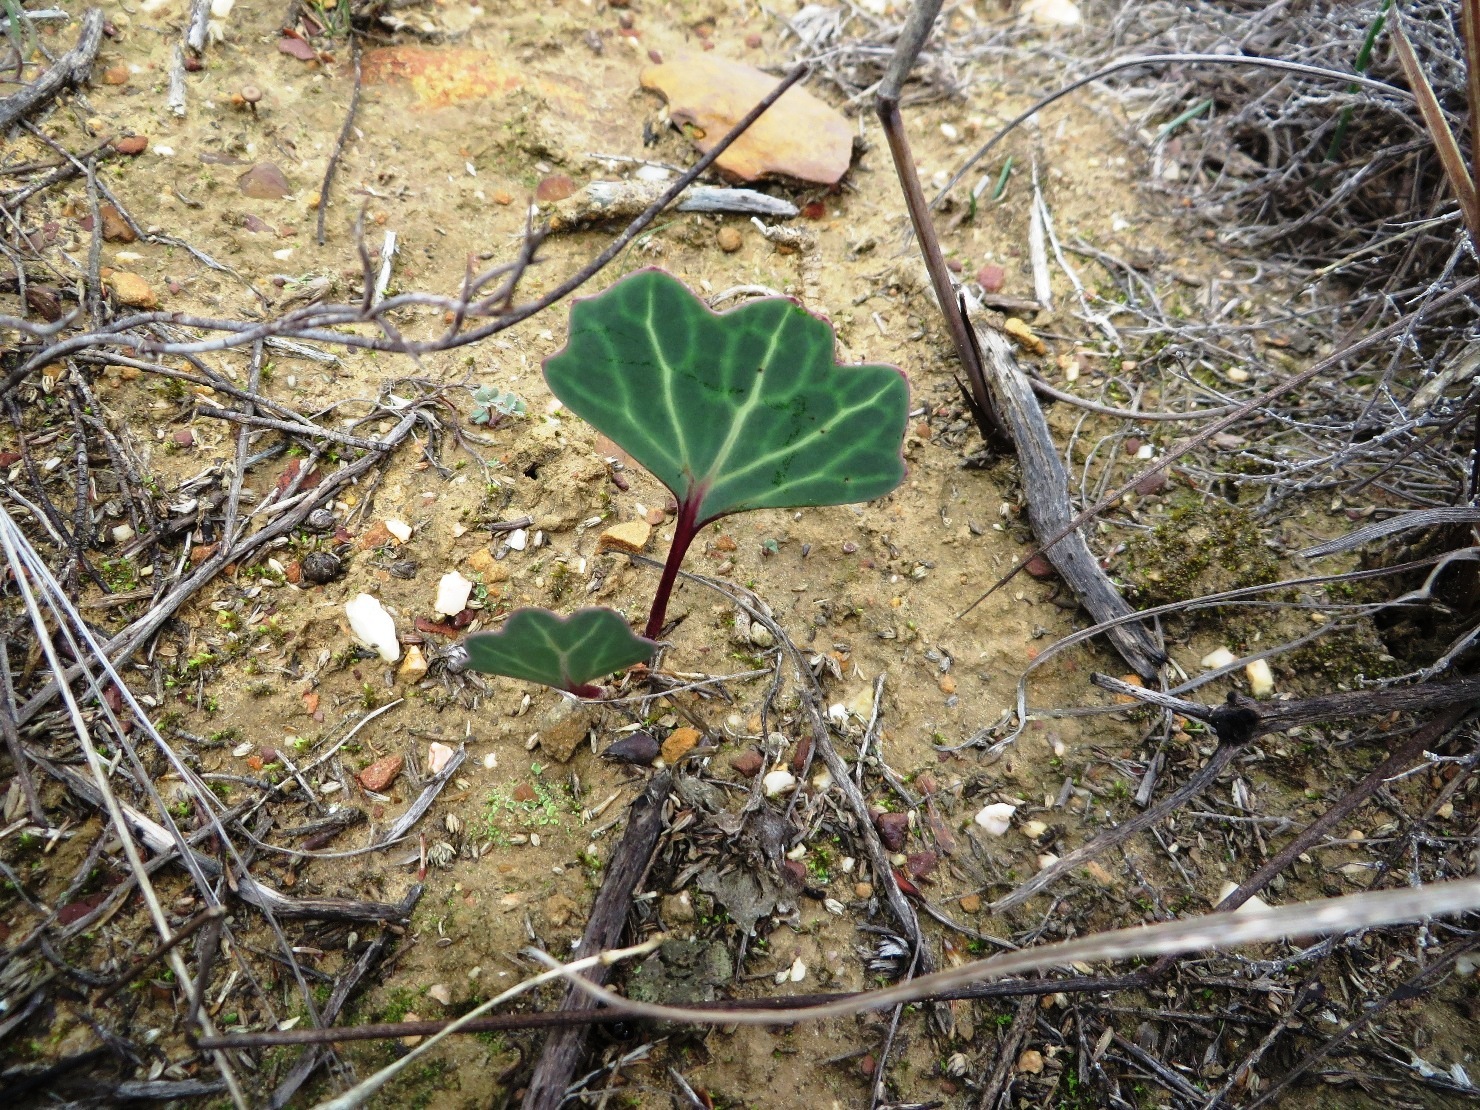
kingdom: Plantae
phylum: Tracheophyta
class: Magnoliopsida
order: Asterales
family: Asteraceae
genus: Othonna
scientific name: Othonna hederifolia
